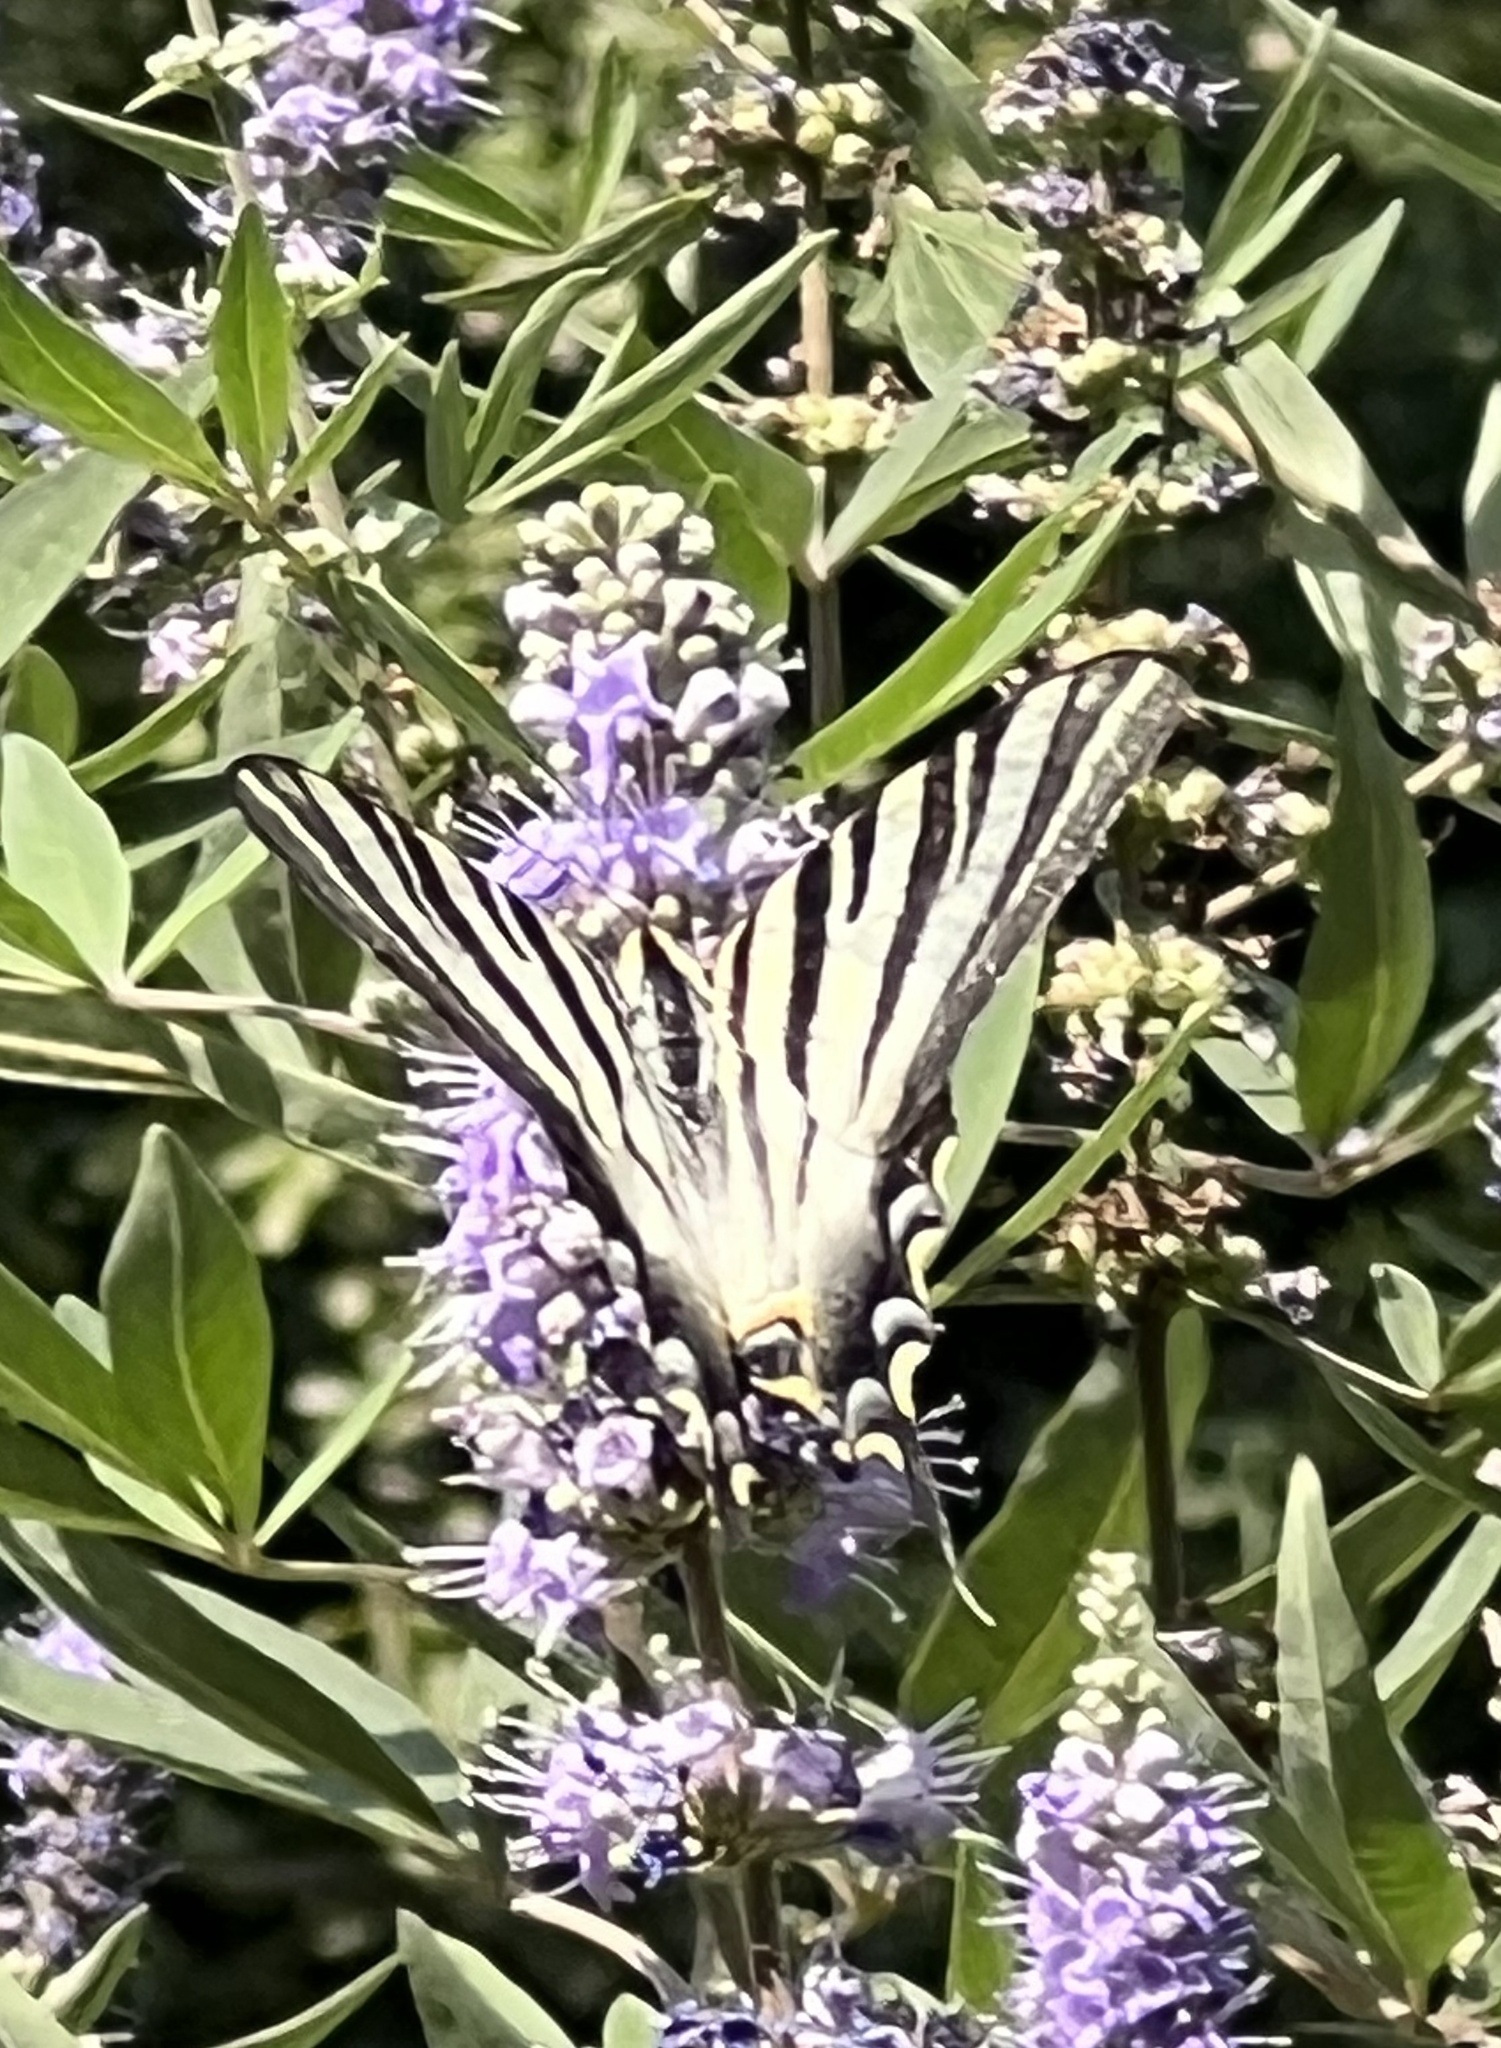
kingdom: Animalia
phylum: Arthropoda
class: Insecta
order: Lepidoptera
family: Papilionidae
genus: Iphiclides
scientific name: Iphiclides feisthamelii
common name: Iberian scarce swallowtail
